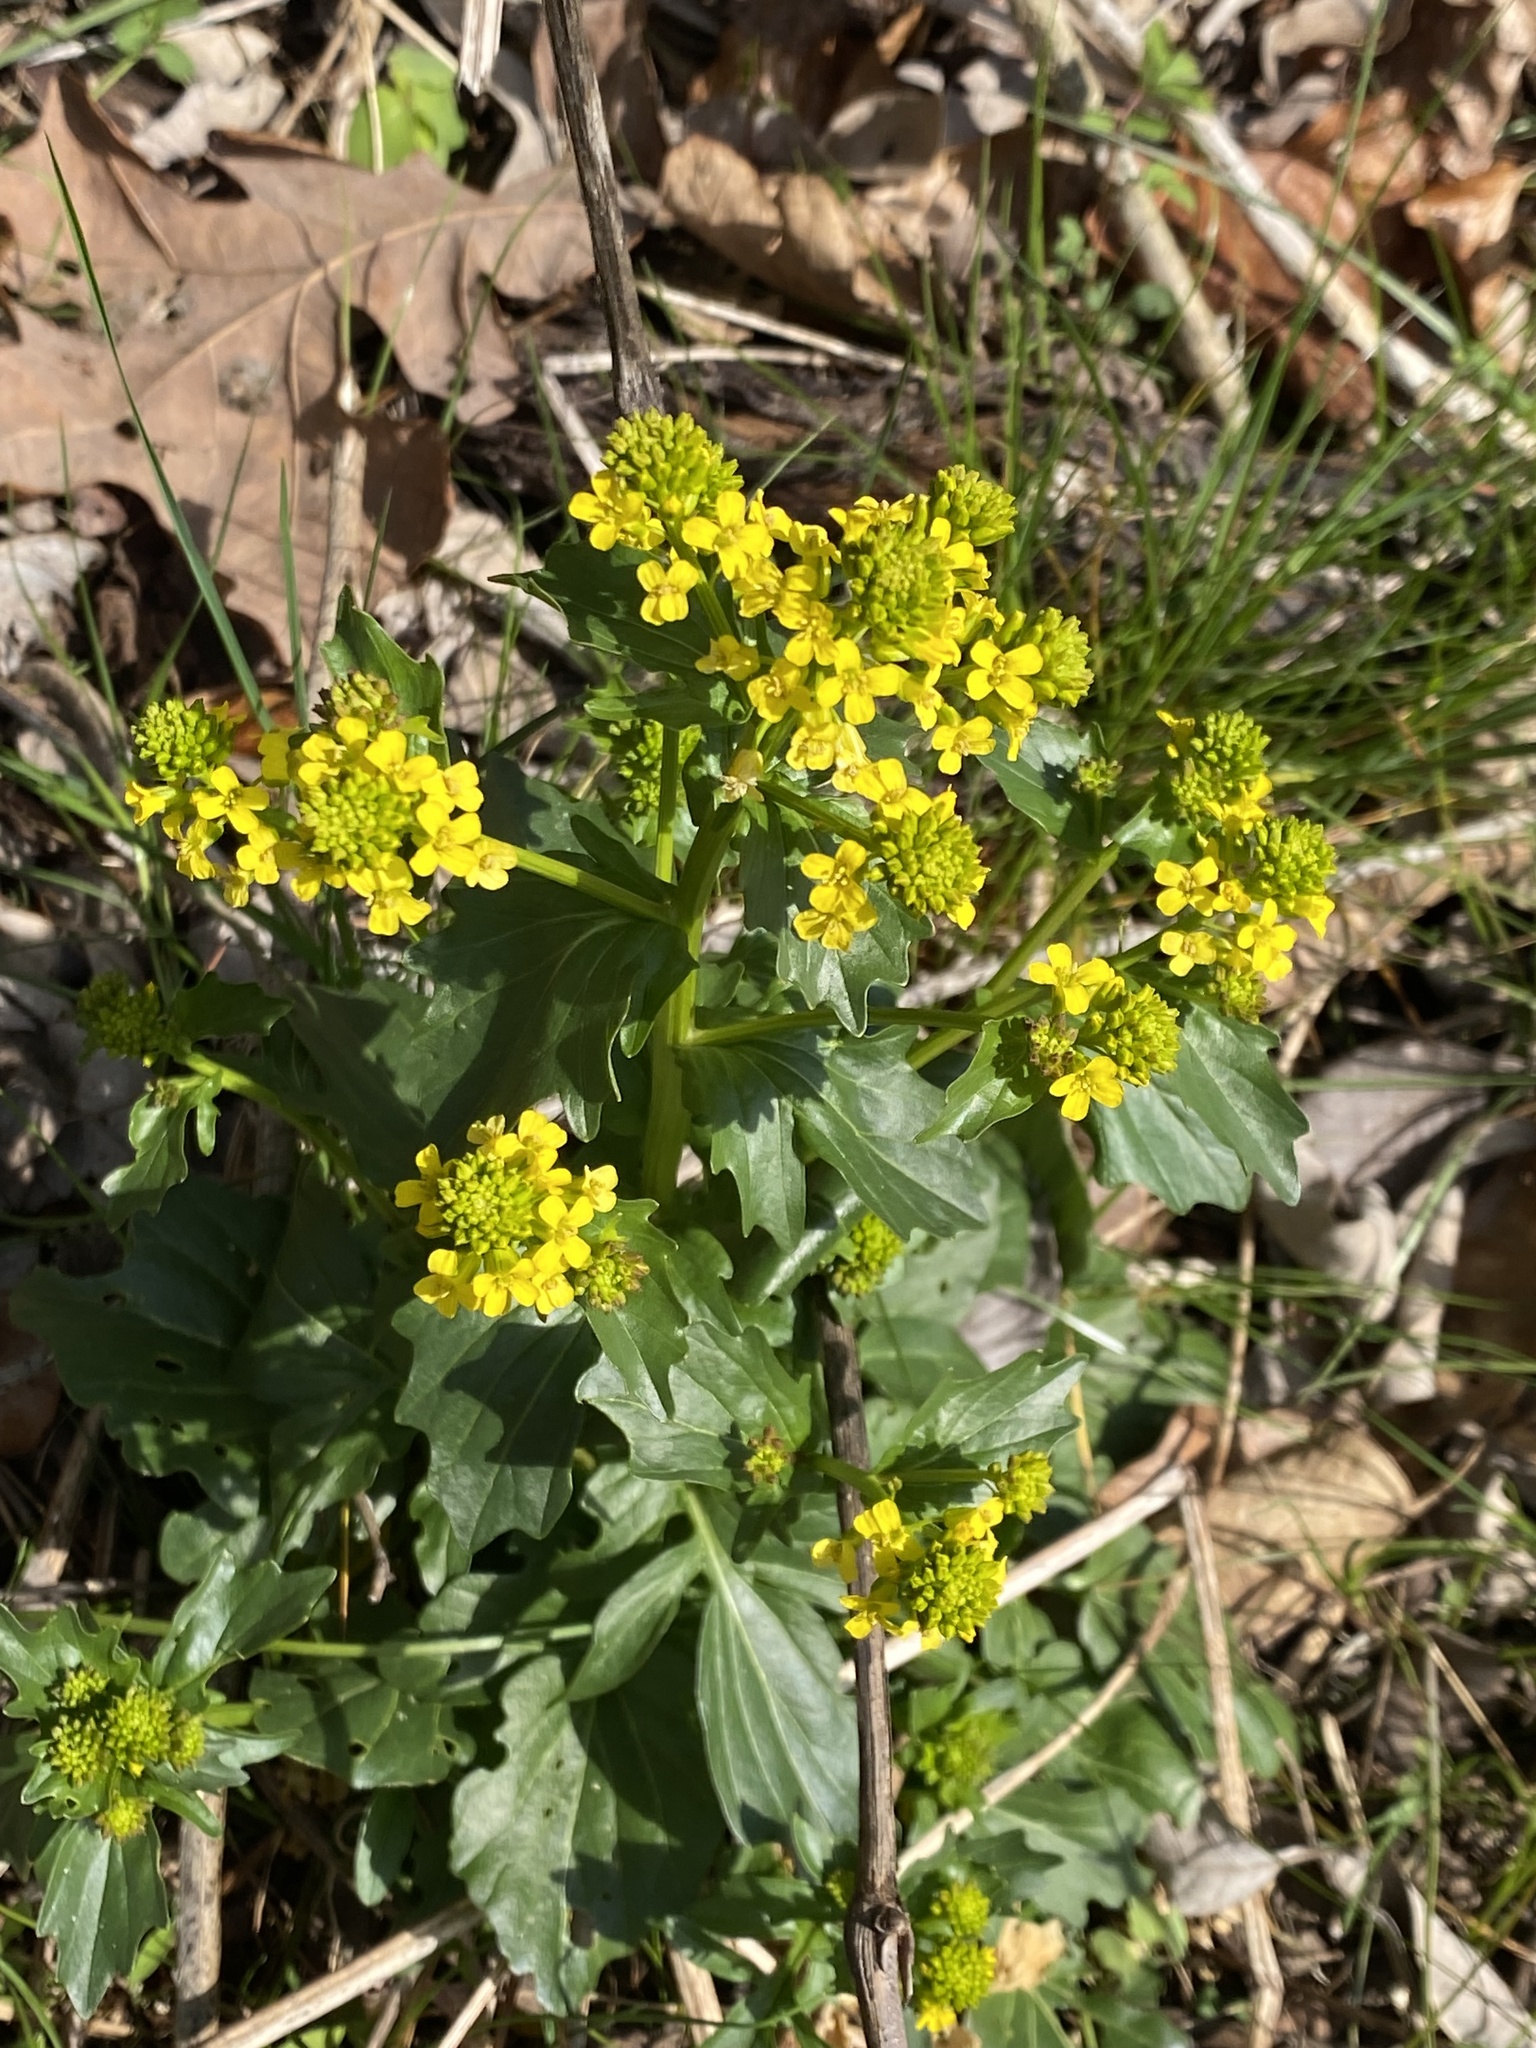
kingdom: Plantae
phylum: Tracheophyta
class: Magnoliopsida
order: Brassicales
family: Brassicaceae
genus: Barbarea
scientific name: Barbarea vulgaris
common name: Cressy-greens
